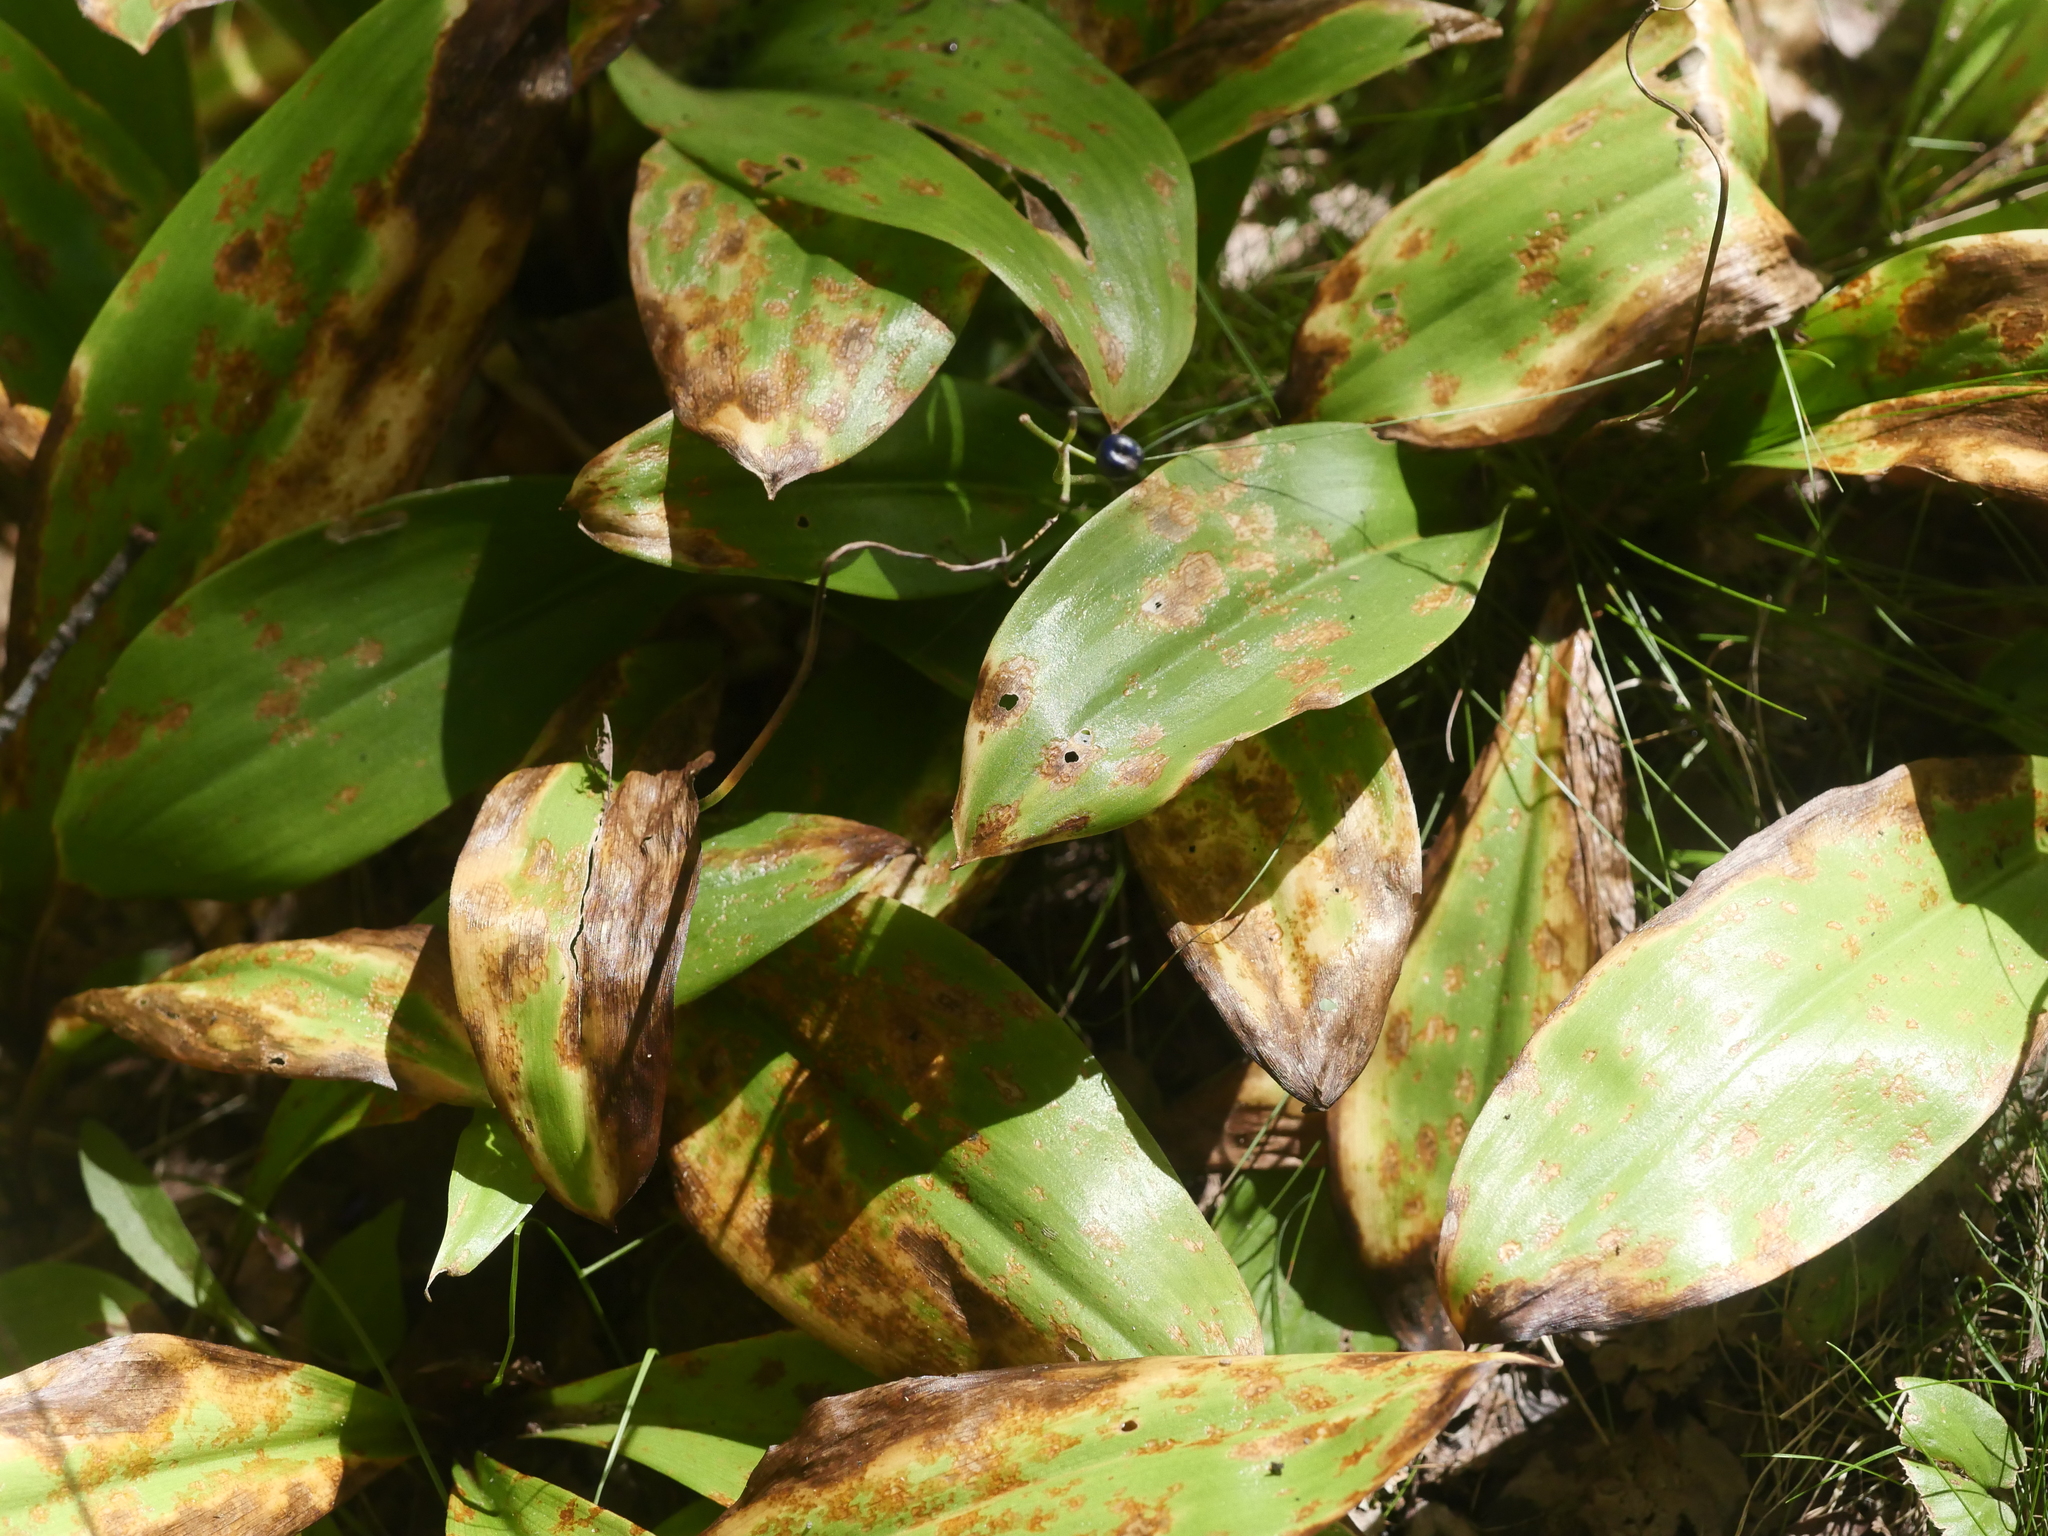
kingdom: Plantae
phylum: Tracheophyta
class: Liliopsida
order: Liliales
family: Liliaceae
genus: Clintonia
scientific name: Clintonia borealis
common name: Yellow clintonia
